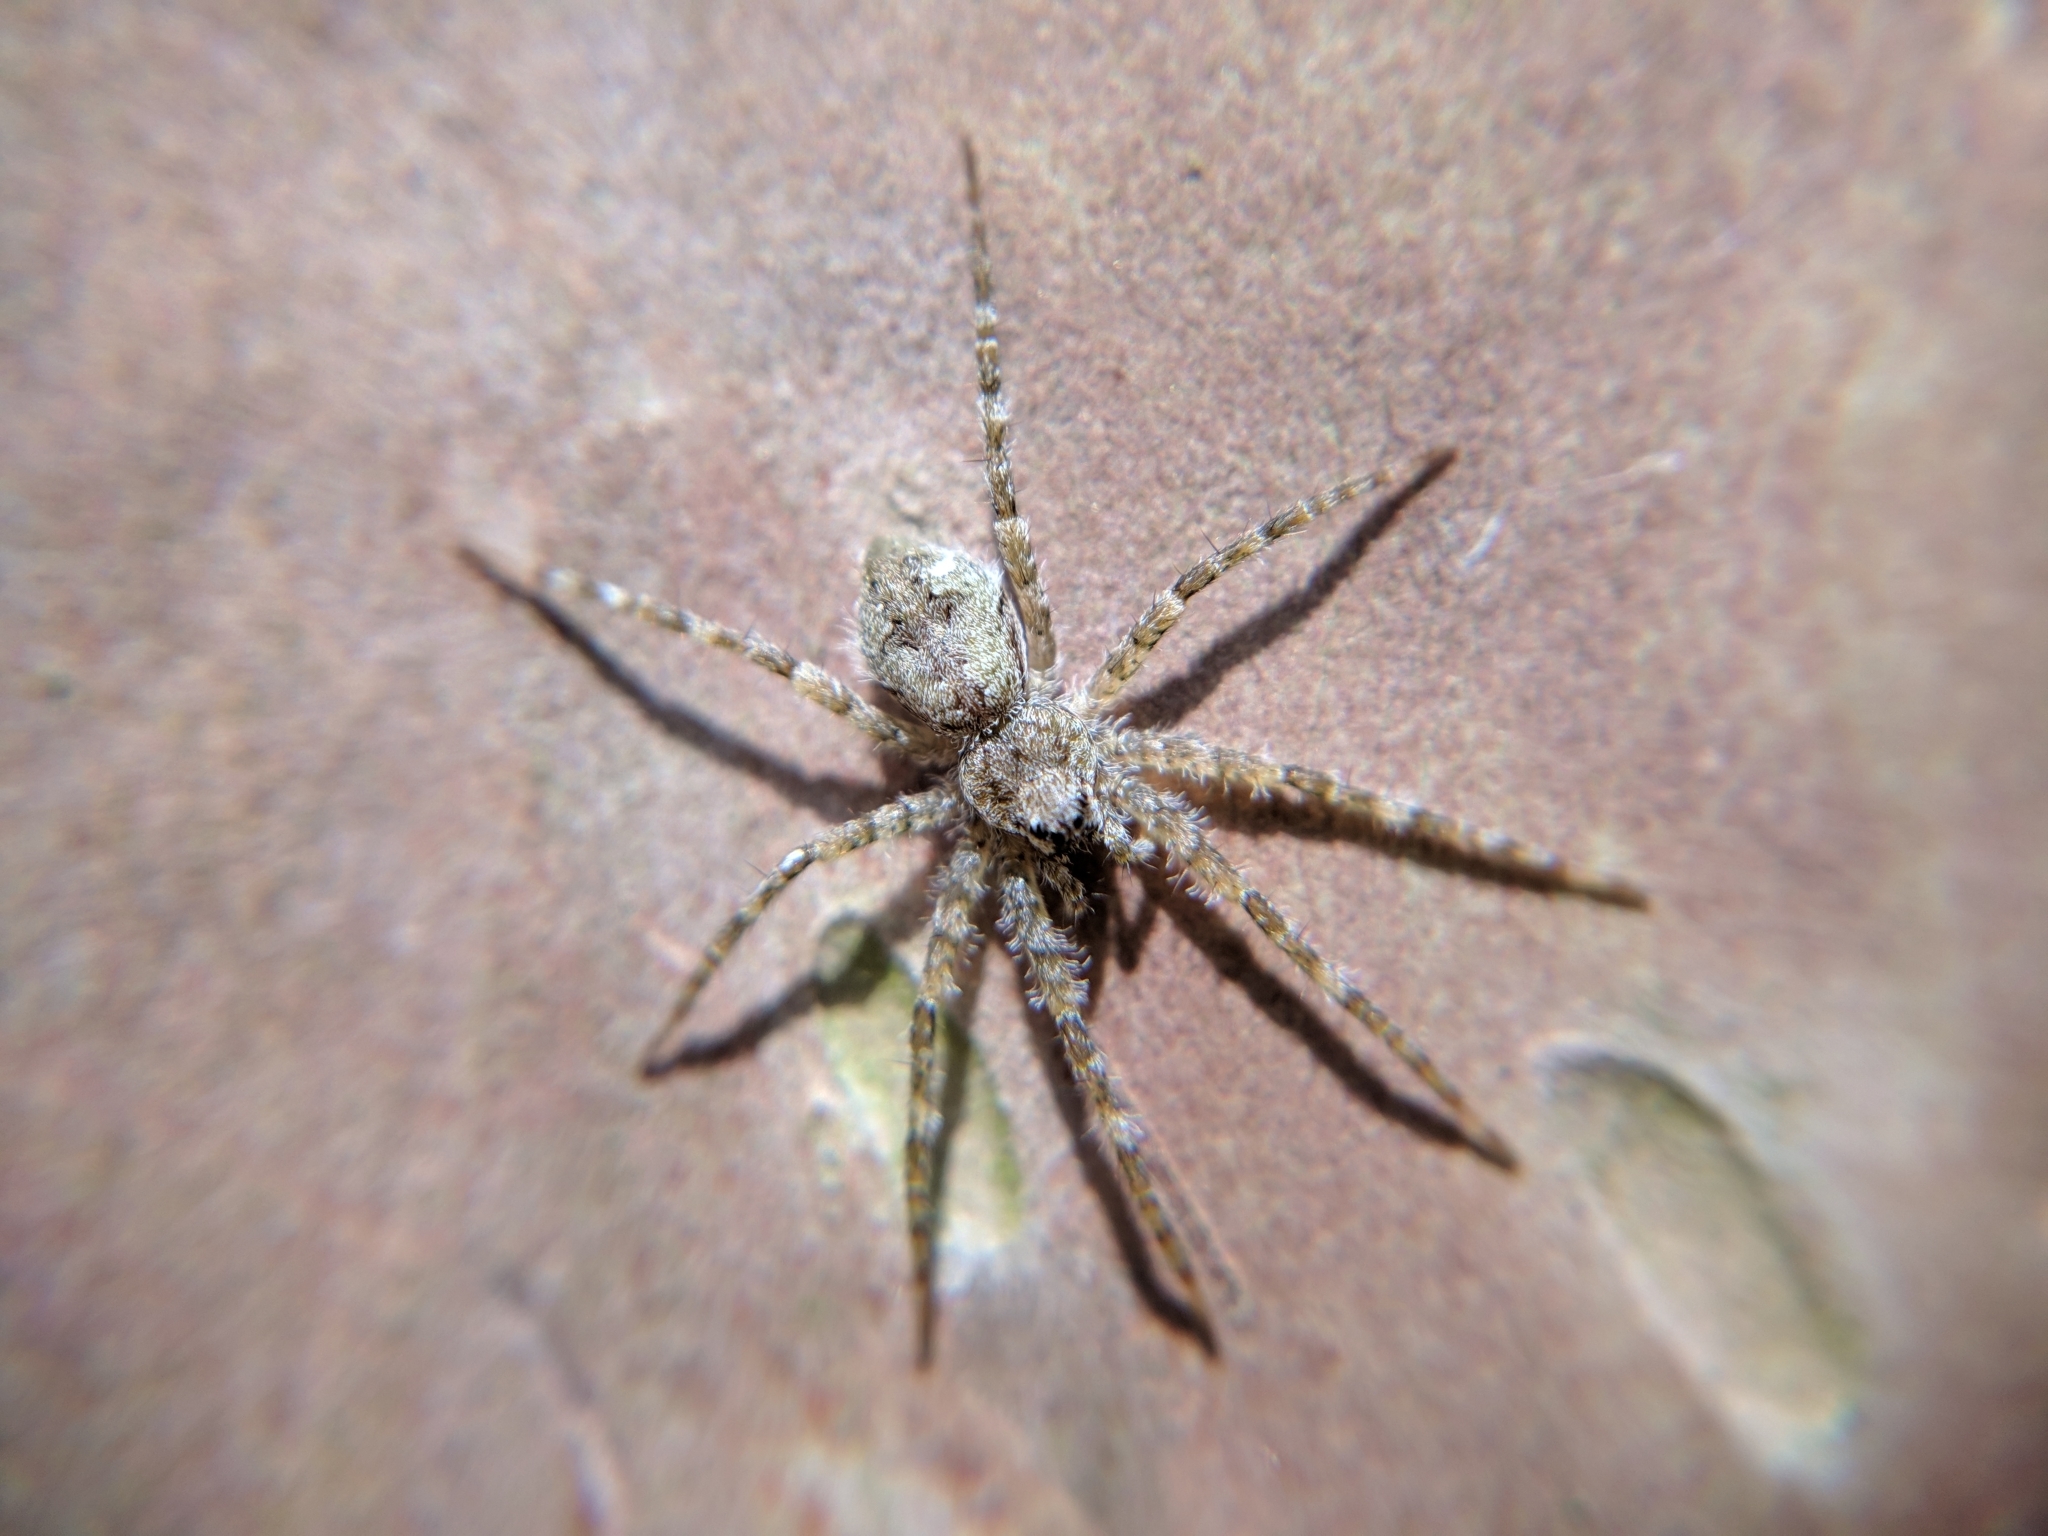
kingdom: Animalia
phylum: Arthropoda
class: Arachnida
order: Araneae
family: Pisauridae
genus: Dolomedes
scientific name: Dolomedes albineus
